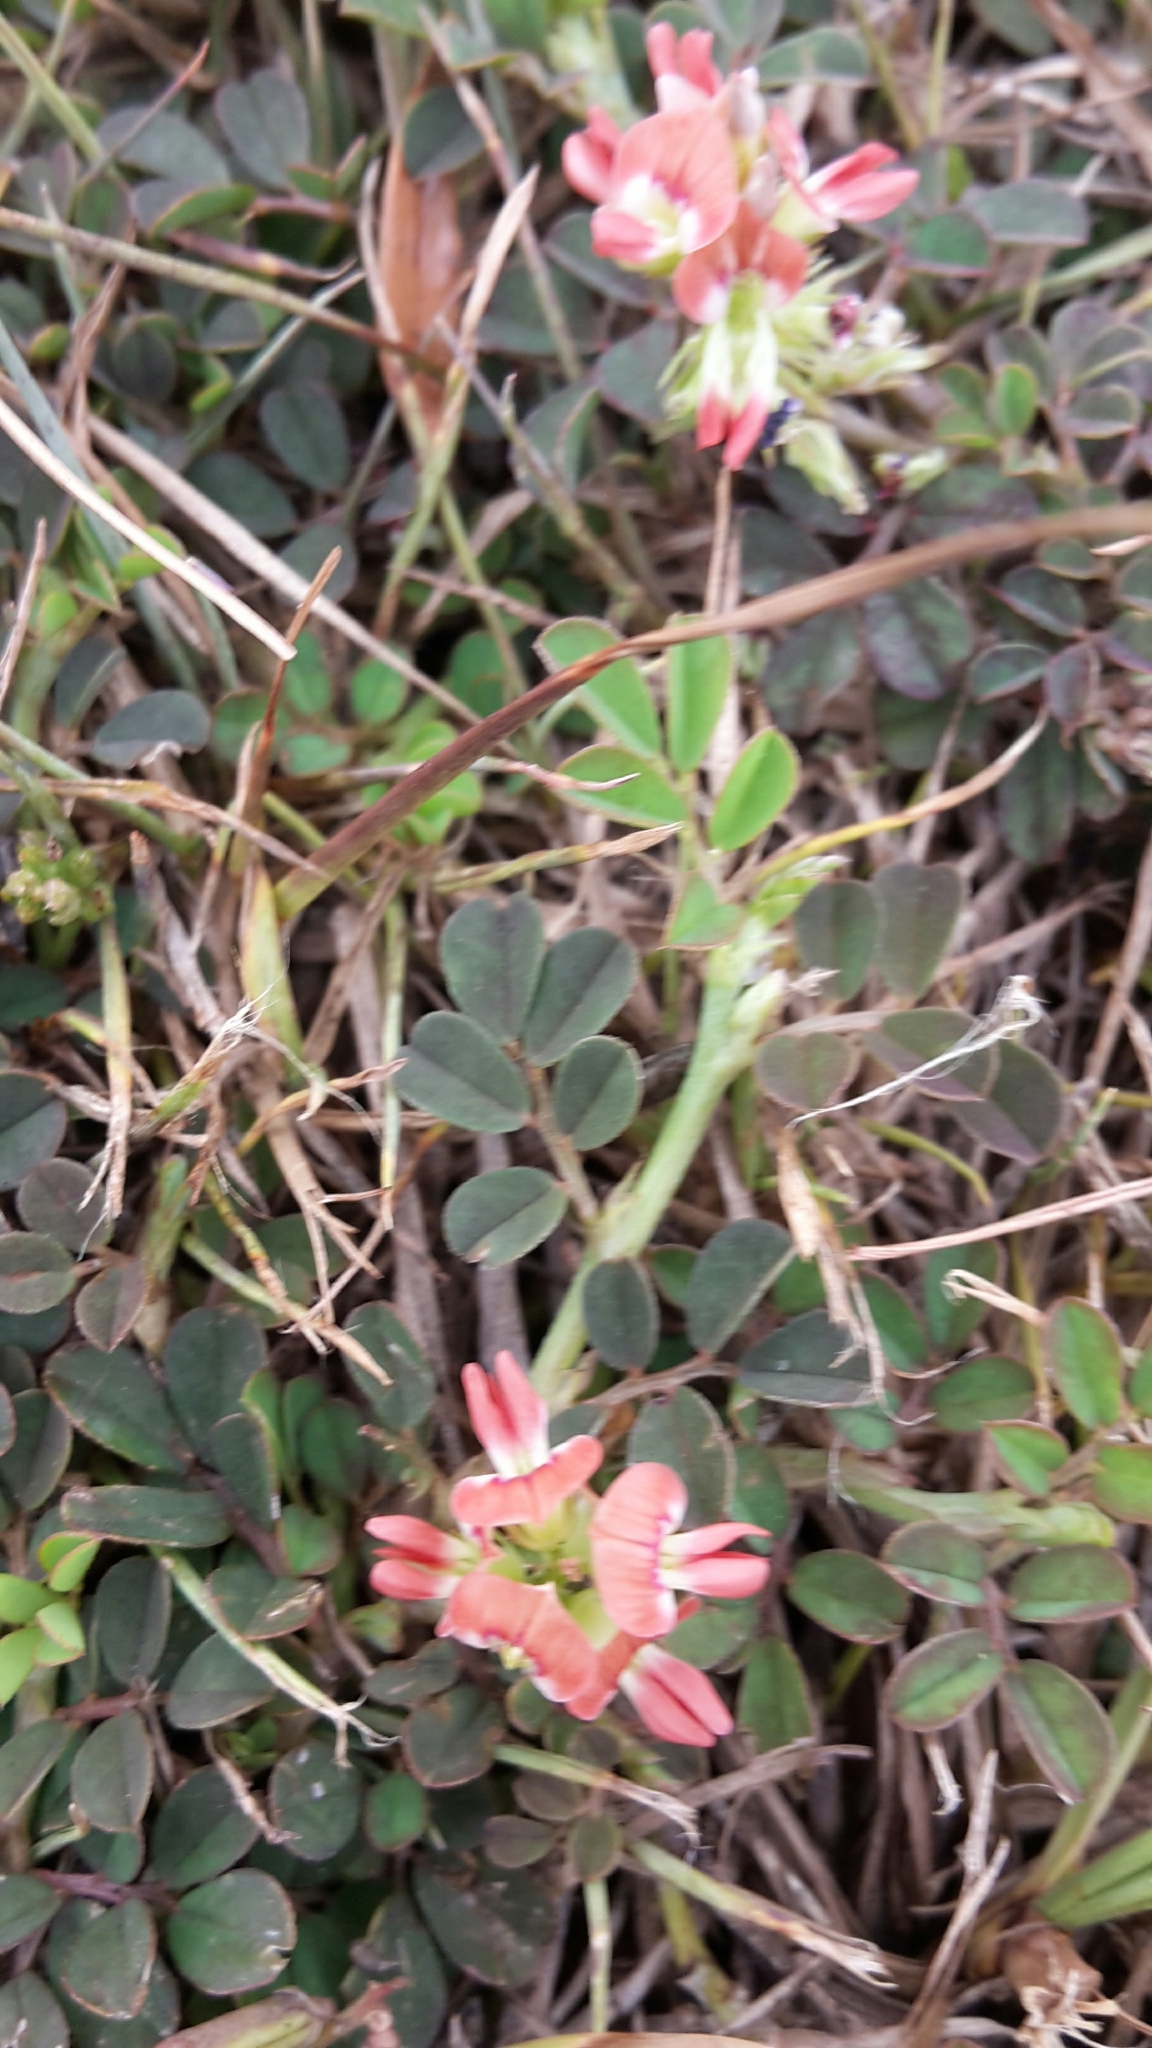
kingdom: Plantae
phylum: Tracheophyta
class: Magnoliopsida
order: Fabales
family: Fabaceae
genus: Indigofera
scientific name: Indigofera spicata
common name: Creeping indigo
